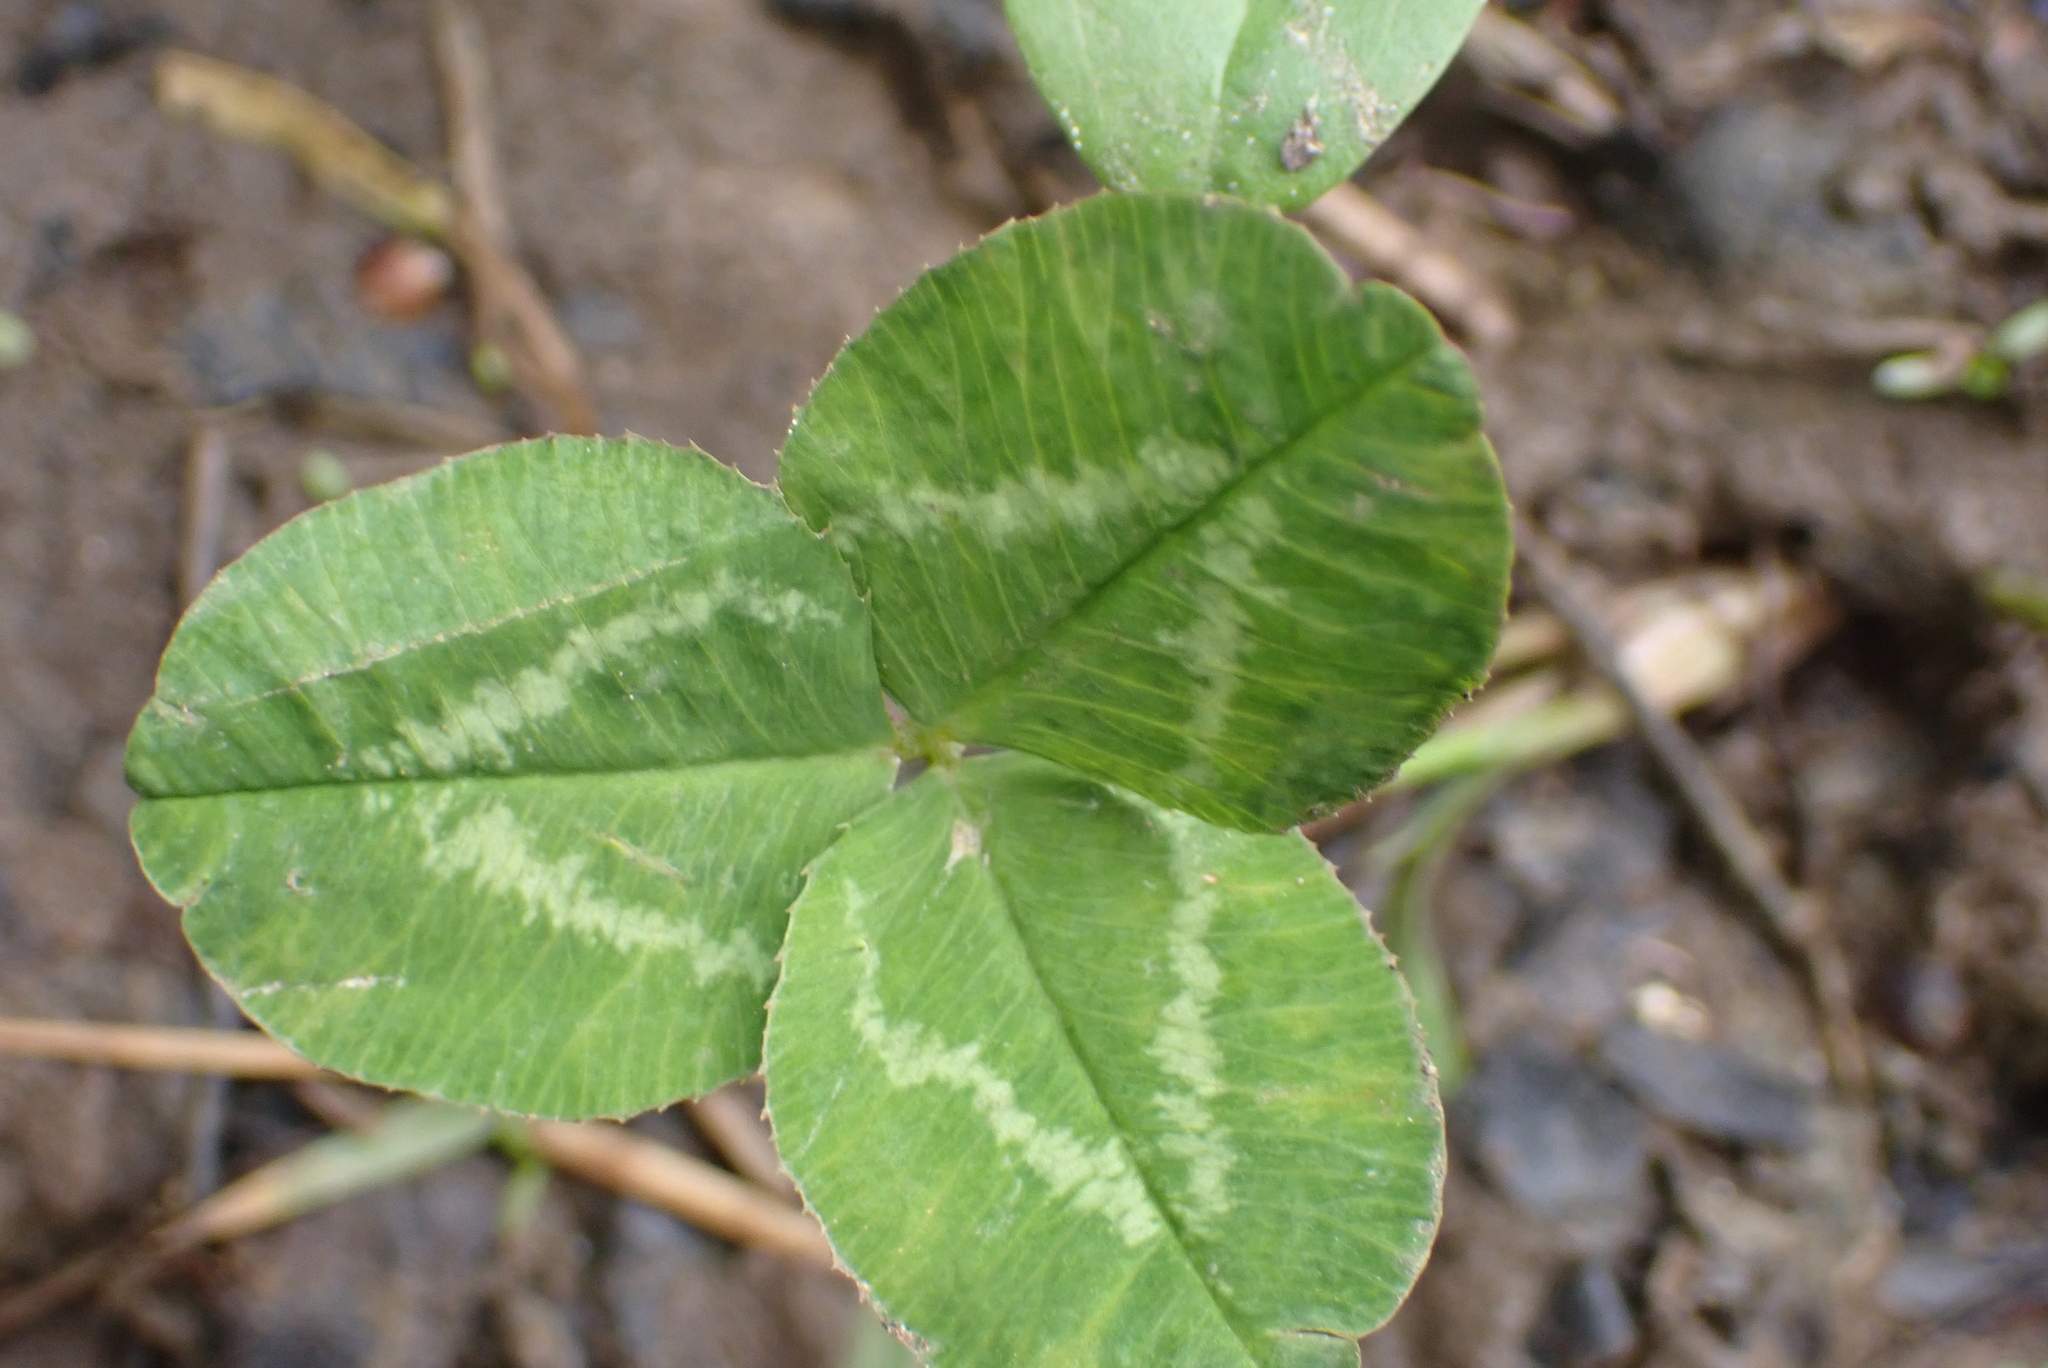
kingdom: Plantae
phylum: Tracheophyta
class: Magnoliopsida
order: Fabales
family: Fabaceae
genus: Trifolium
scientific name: Trifolium repens
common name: White clover
